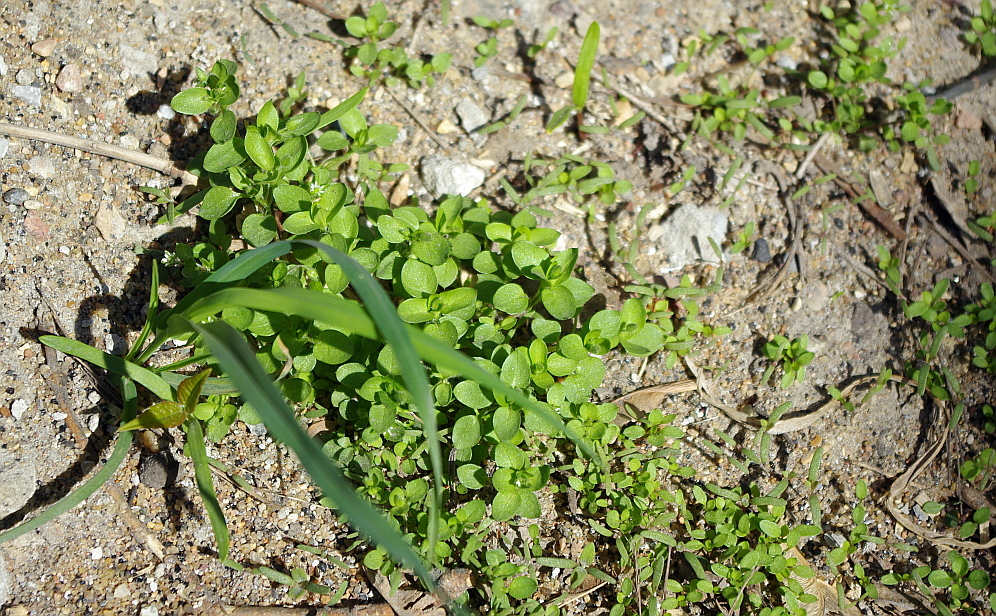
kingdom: Plantae
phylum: Tracheophyta
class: Magnoliopsida
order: Caryophyllales
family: Caryophyllaceae
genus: Stellaria
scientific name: Stellaria media
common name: Common chickweed
